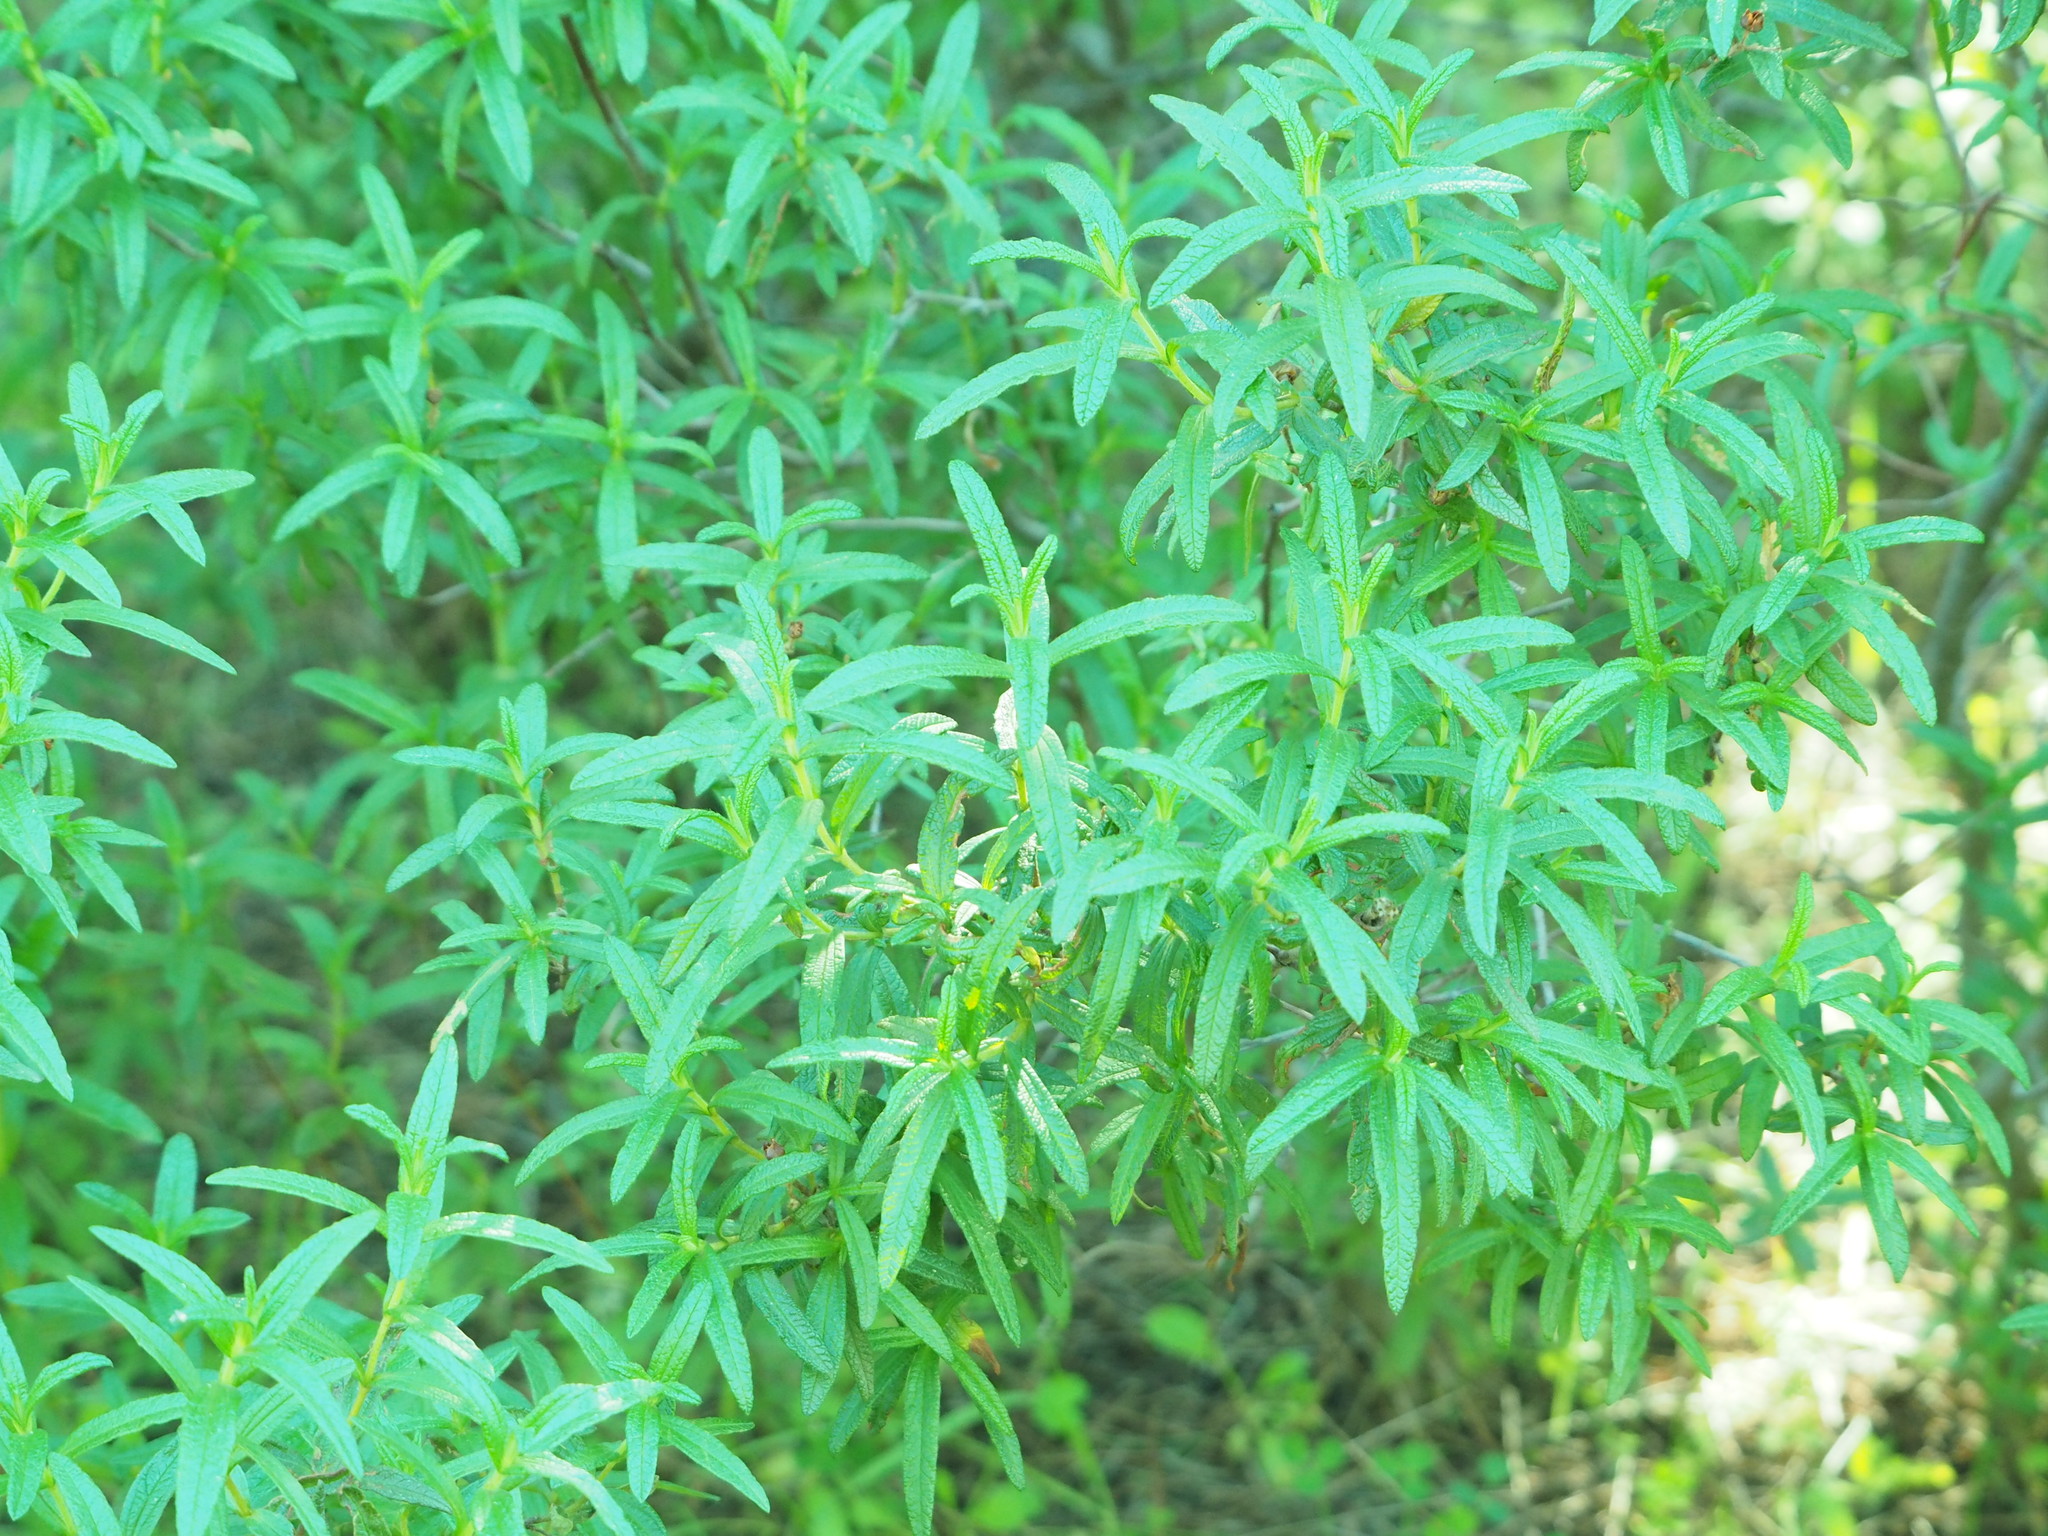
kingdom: Plantae
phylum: Tracheophyta
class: Magnoliopsida
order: Malvales
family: Cistaceae
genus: Cistus
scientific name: Cistus monspeliensis
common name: Montpelier cistus
